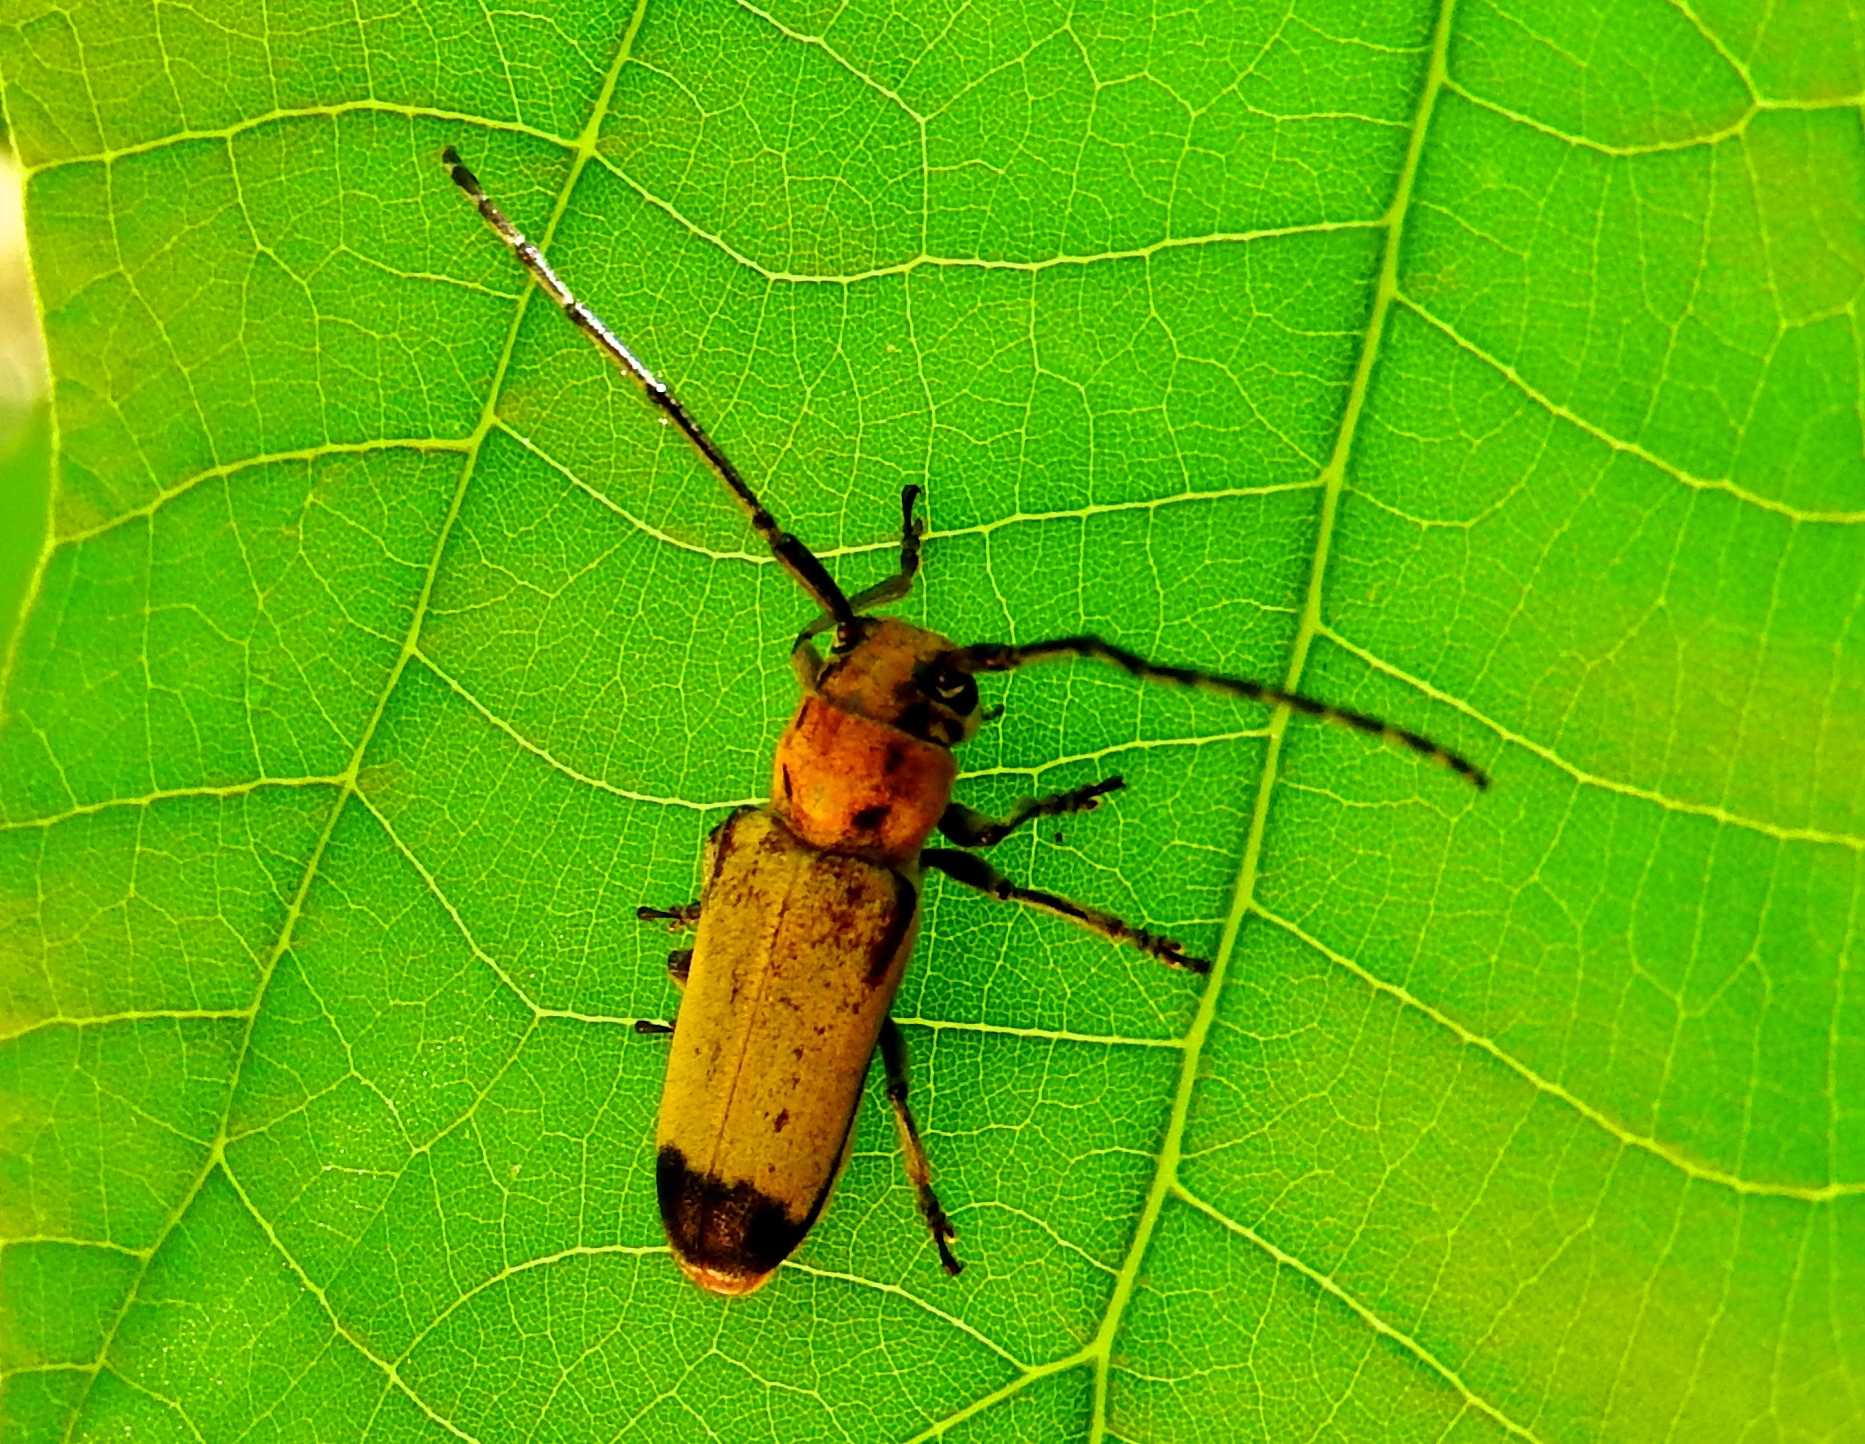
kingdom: Animalia
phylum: Arthropoda
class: Insecta
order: Coleoptera
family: Cerambycidae
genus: Essostrutha
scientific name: Essostrutha laeta
